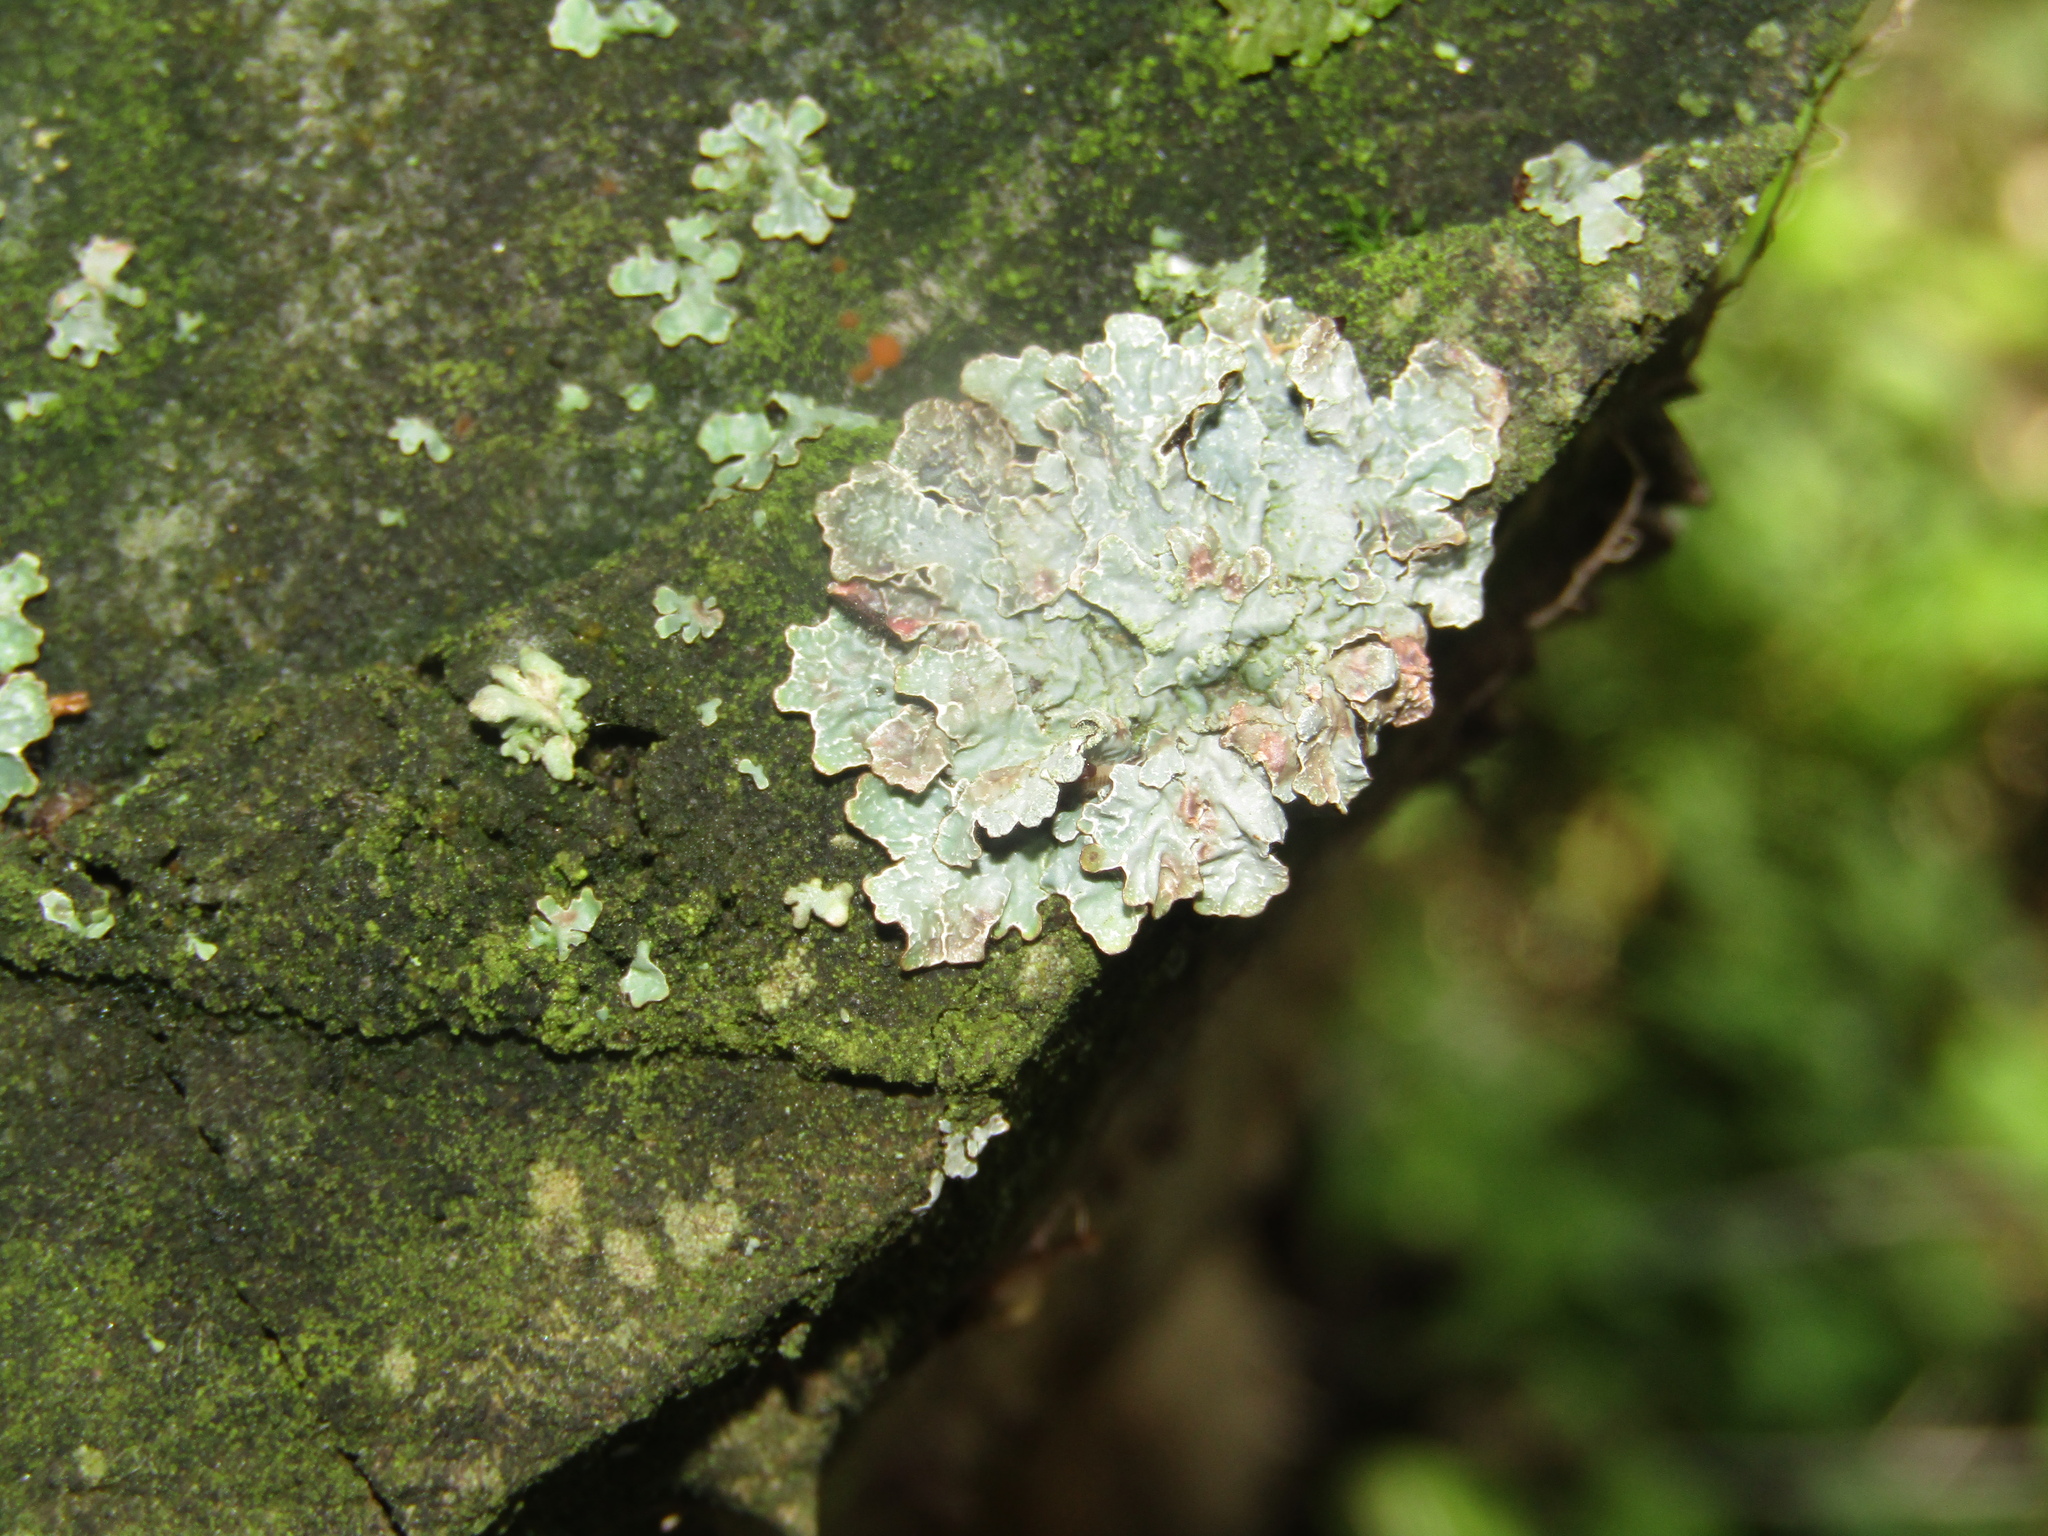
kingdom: Fungi
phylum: Ascomycota
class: Lecanoromycetes
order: Lecanorales
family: Parmeliaceae
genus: Parmelia
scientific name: Parmelia sulcata
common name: Netted shield lichen
